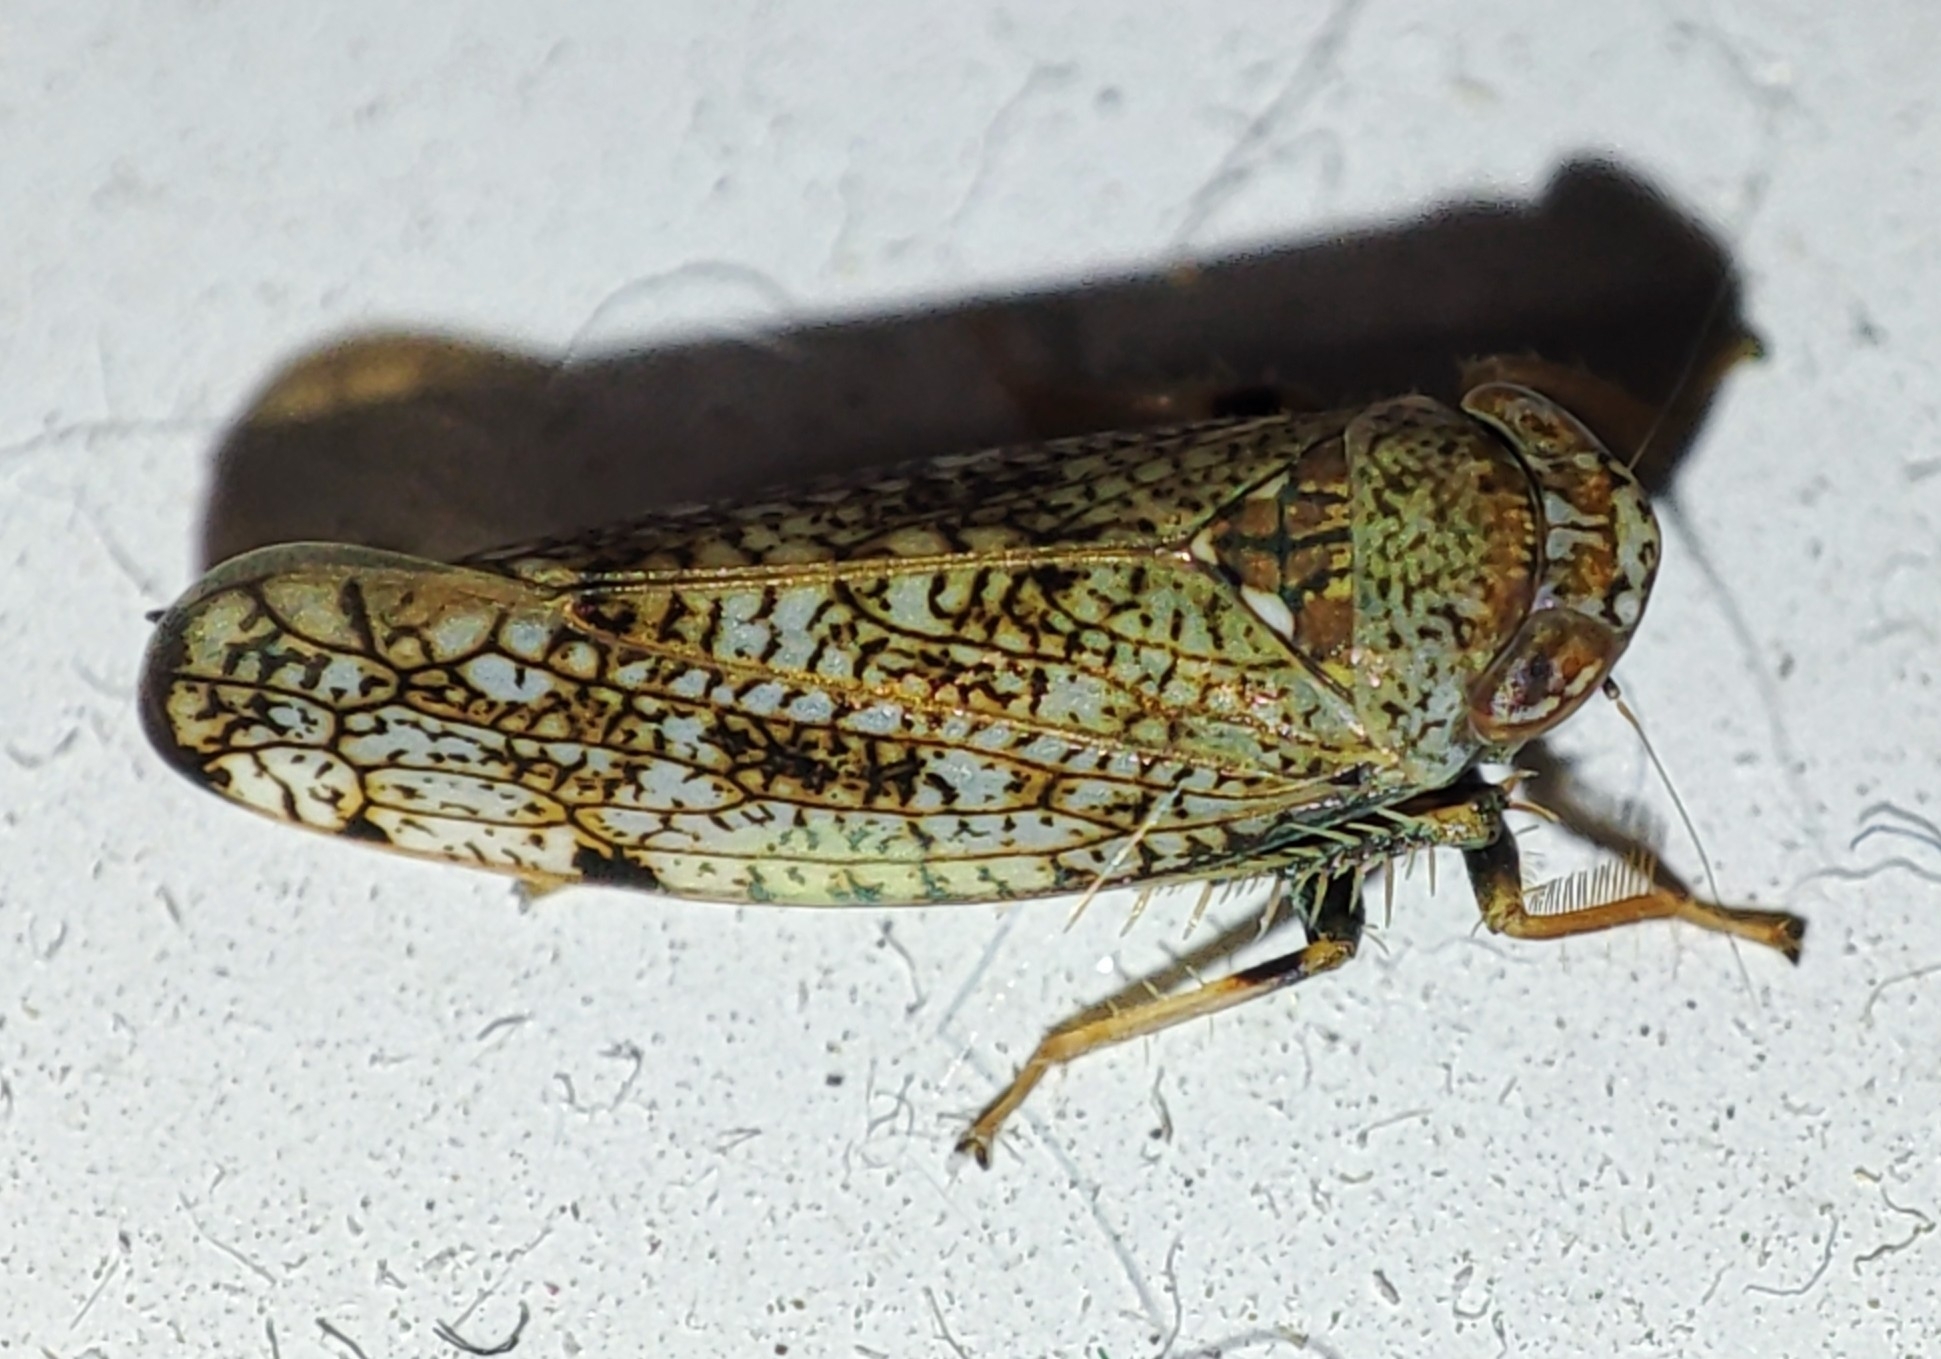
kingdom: Animalia
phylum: Arthropoda
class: Insecta
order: Hemiptera
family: Cicadellidae
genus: Orientus
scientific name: Orientus ishidae
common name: Japanese leafhopper
